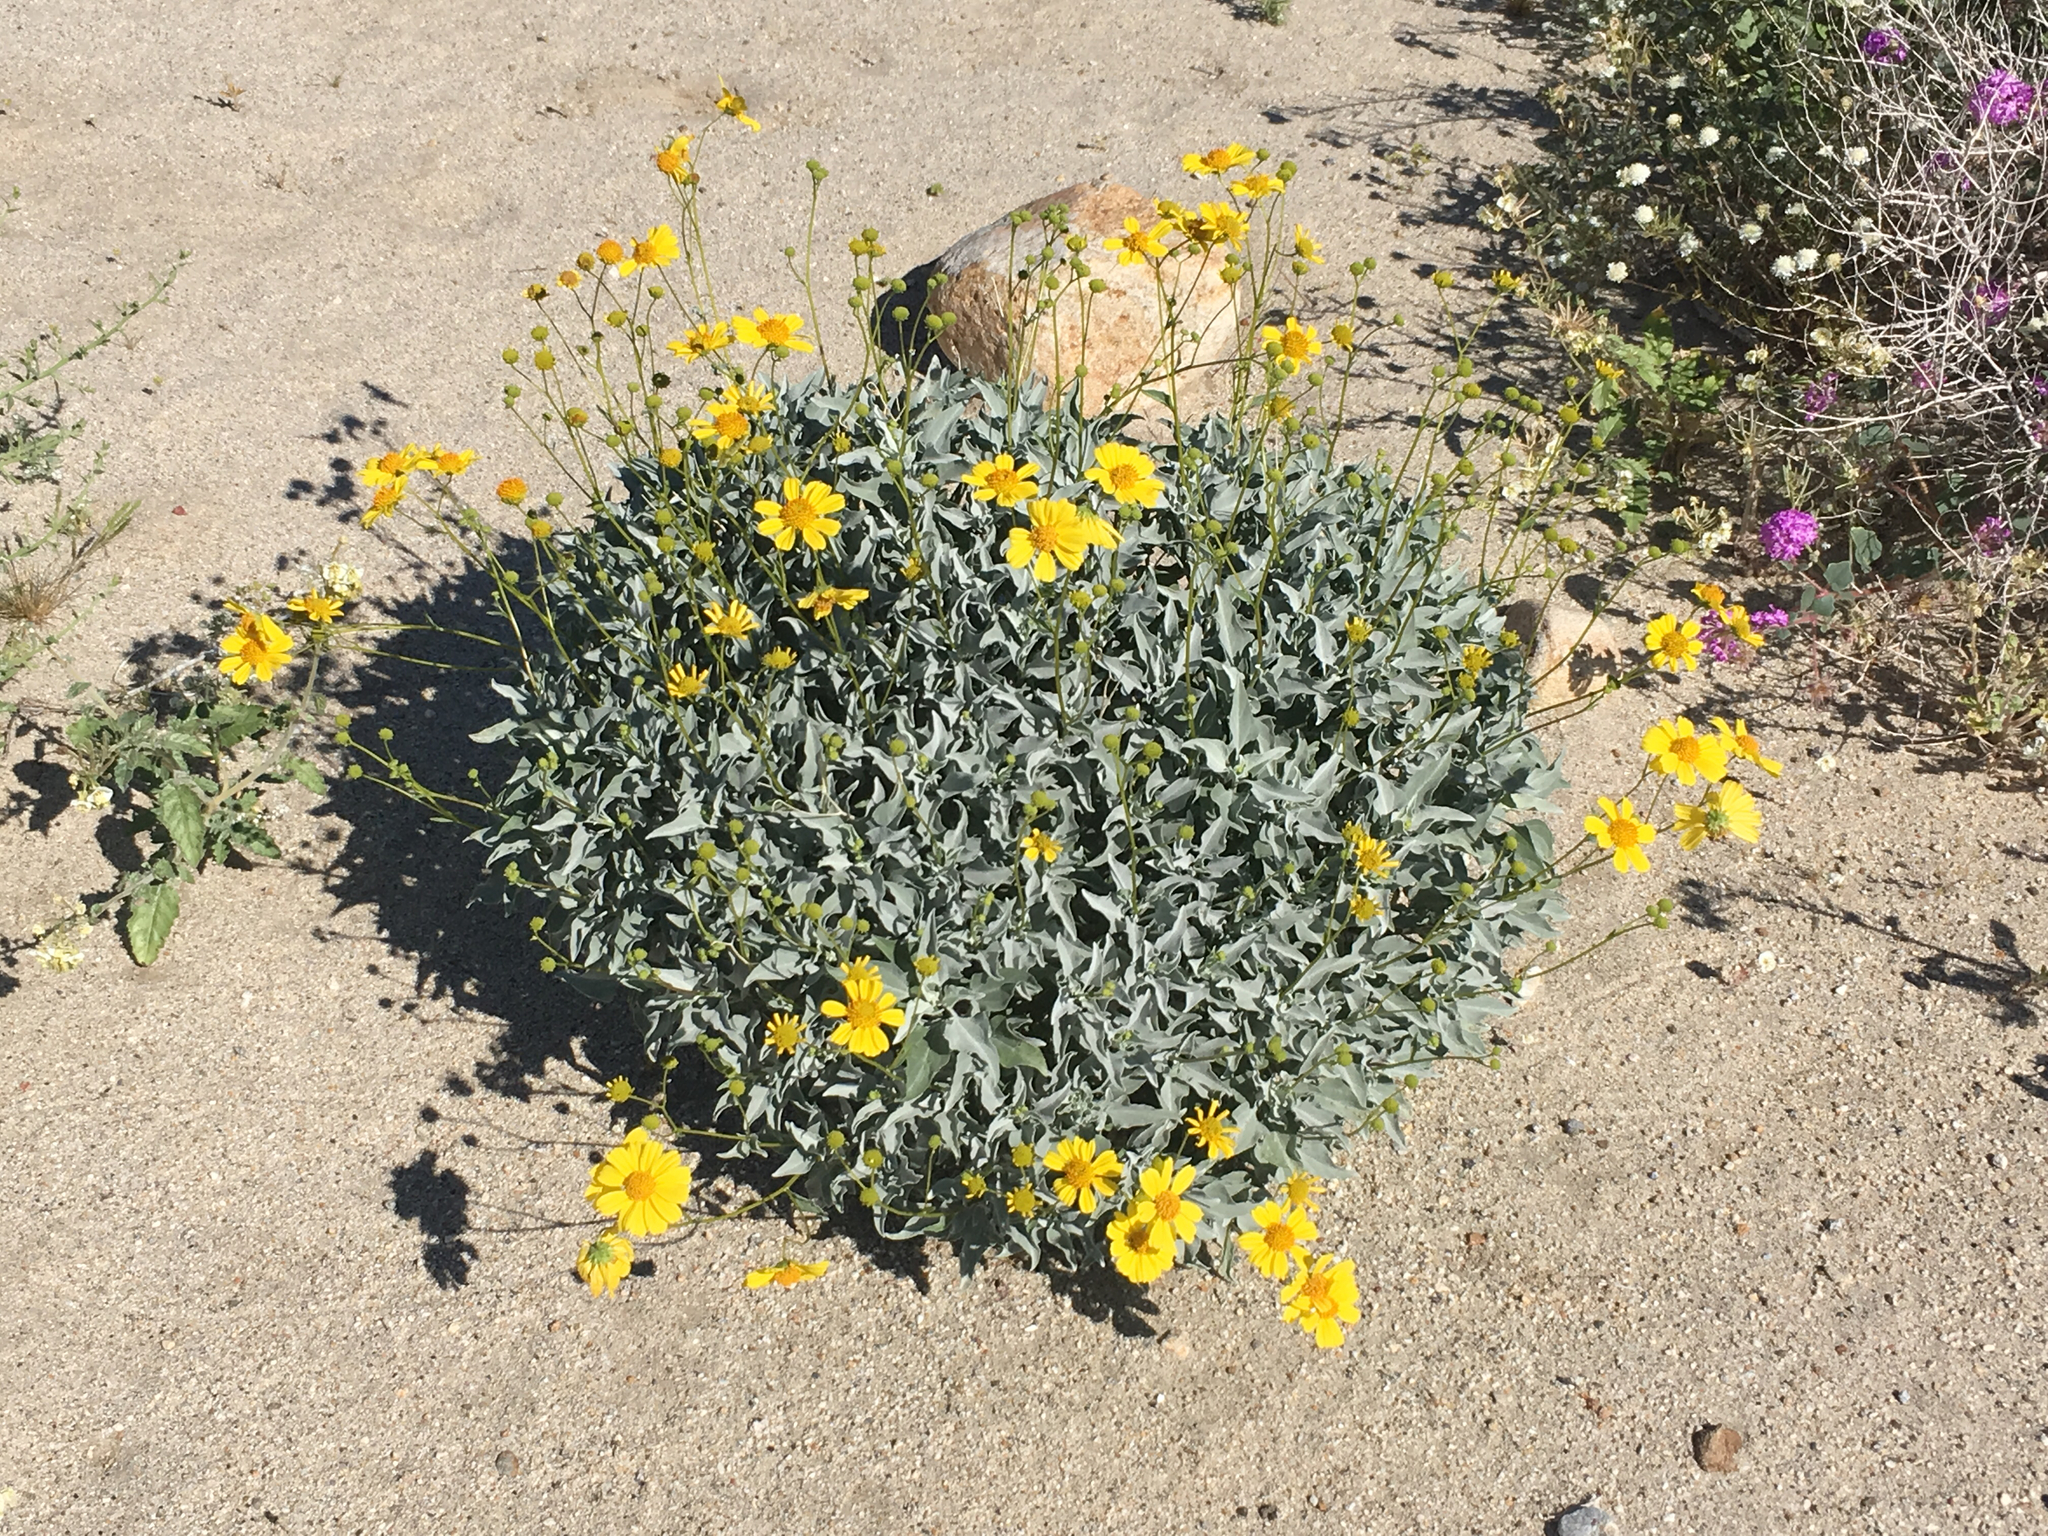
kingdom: Plantae
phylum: Tracheophyta
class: Magnoliopsida
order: Asterales
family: Asteraceae
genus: Encelia
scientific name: Encelia farinosa
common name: Brittlebush
